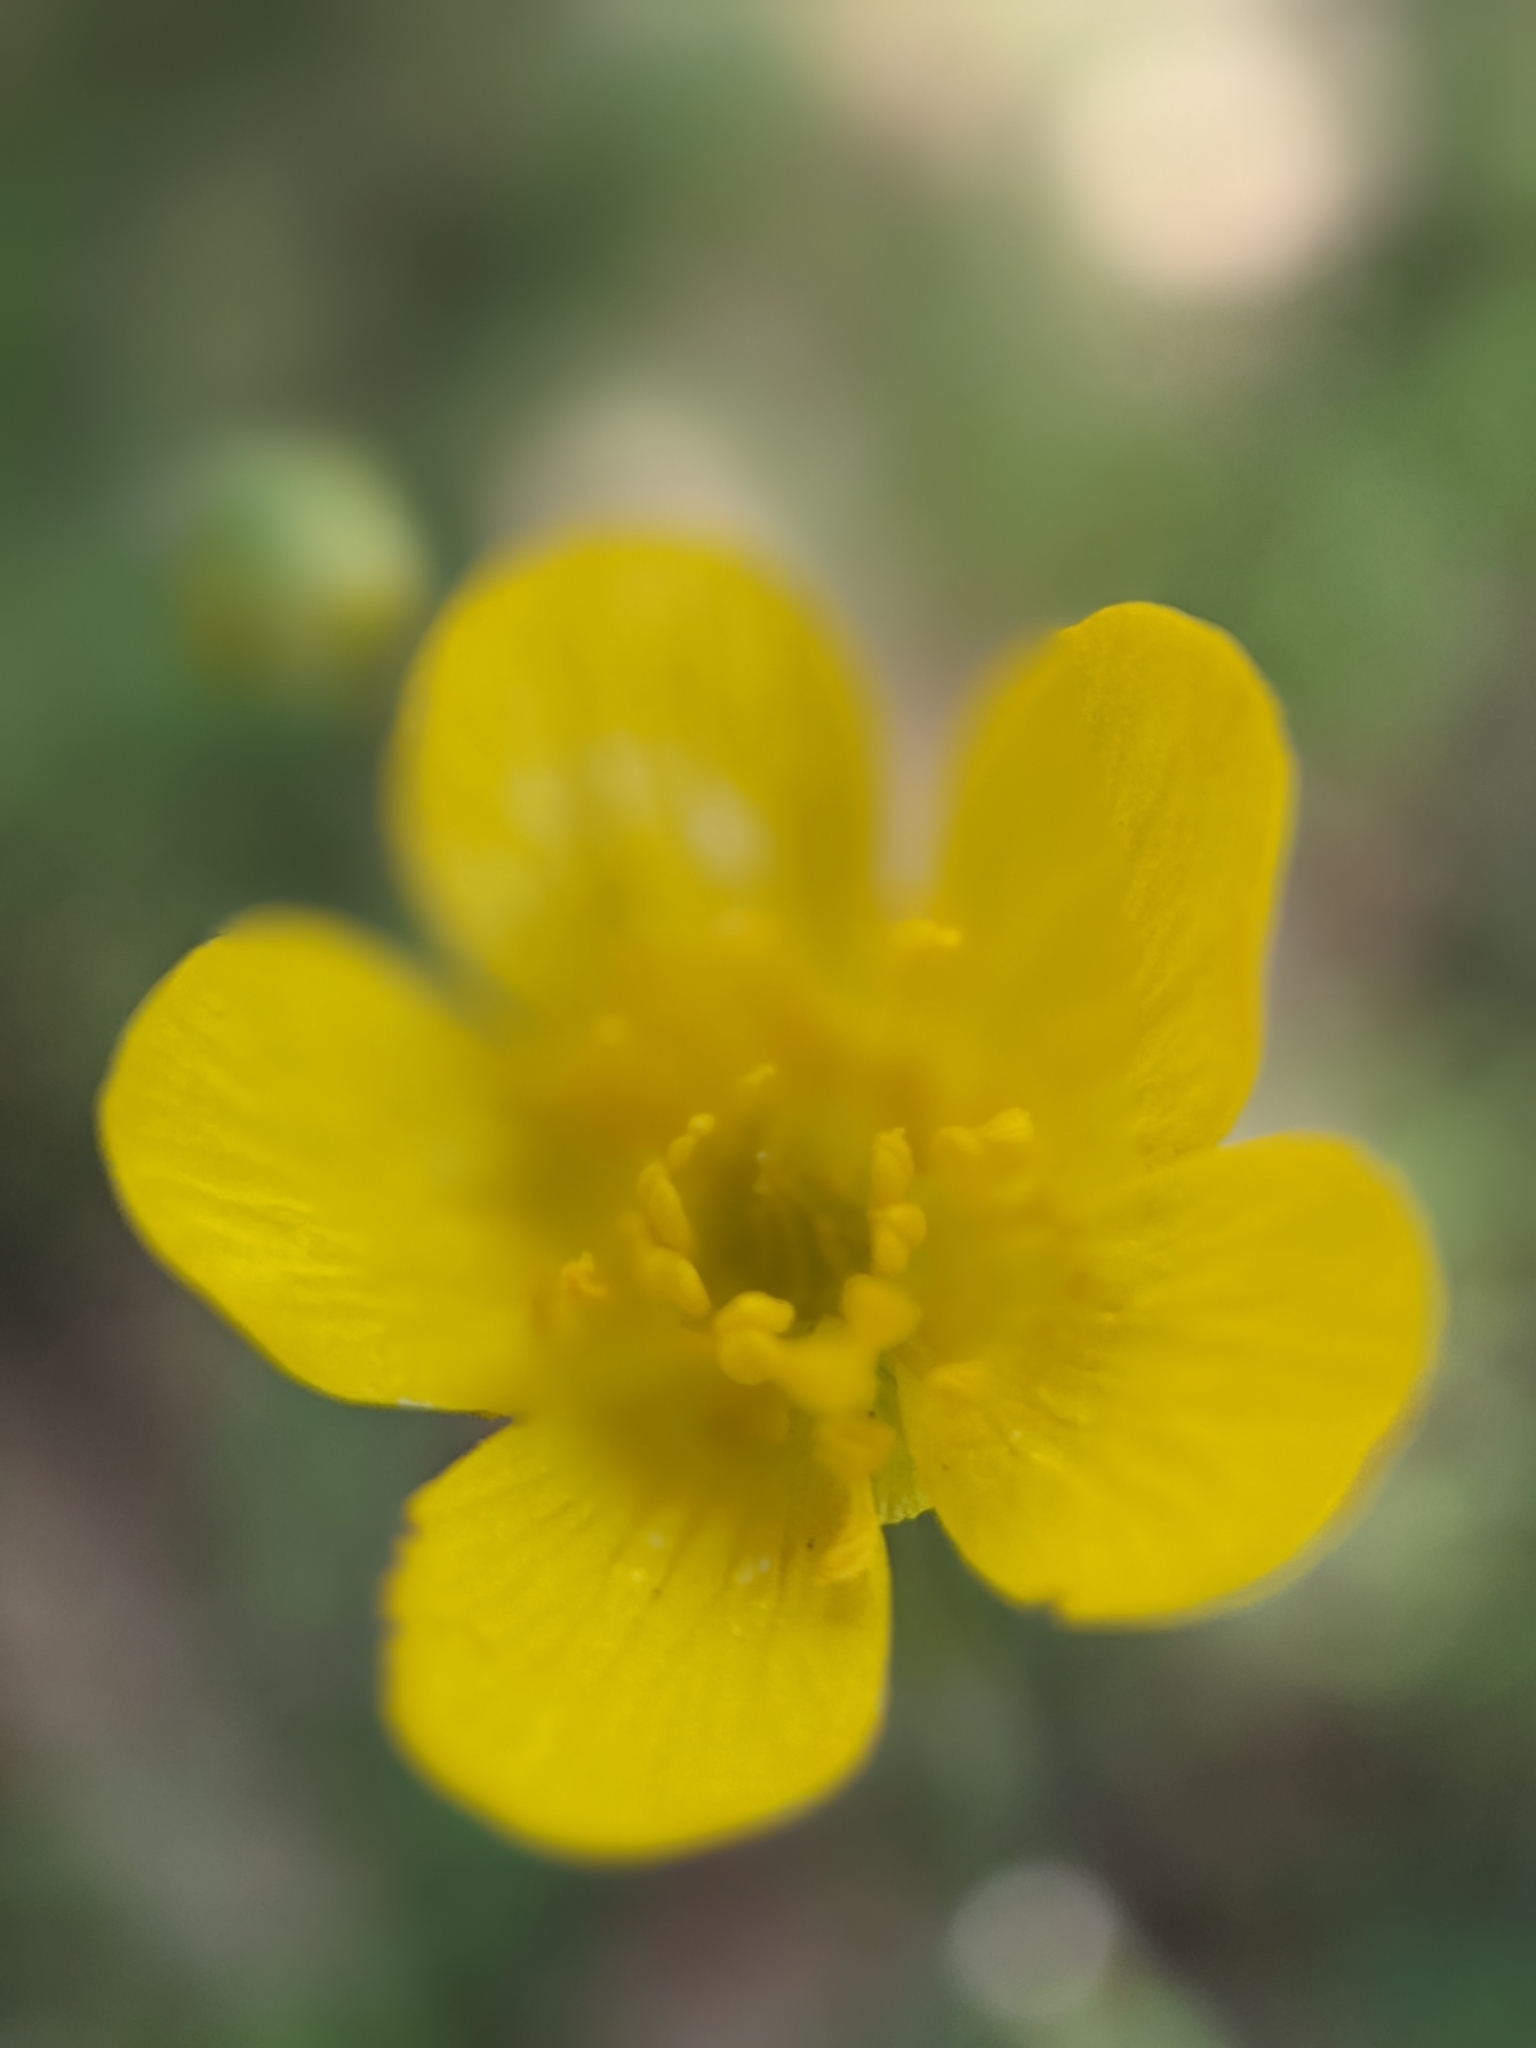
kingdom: Plantae
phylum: Tracheophyta
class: Magnoliopsida
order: Ranunculales
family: Ranunculaceae
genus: Ranunculus
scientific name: Ranunculus occidentalis
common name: Western buttercup
